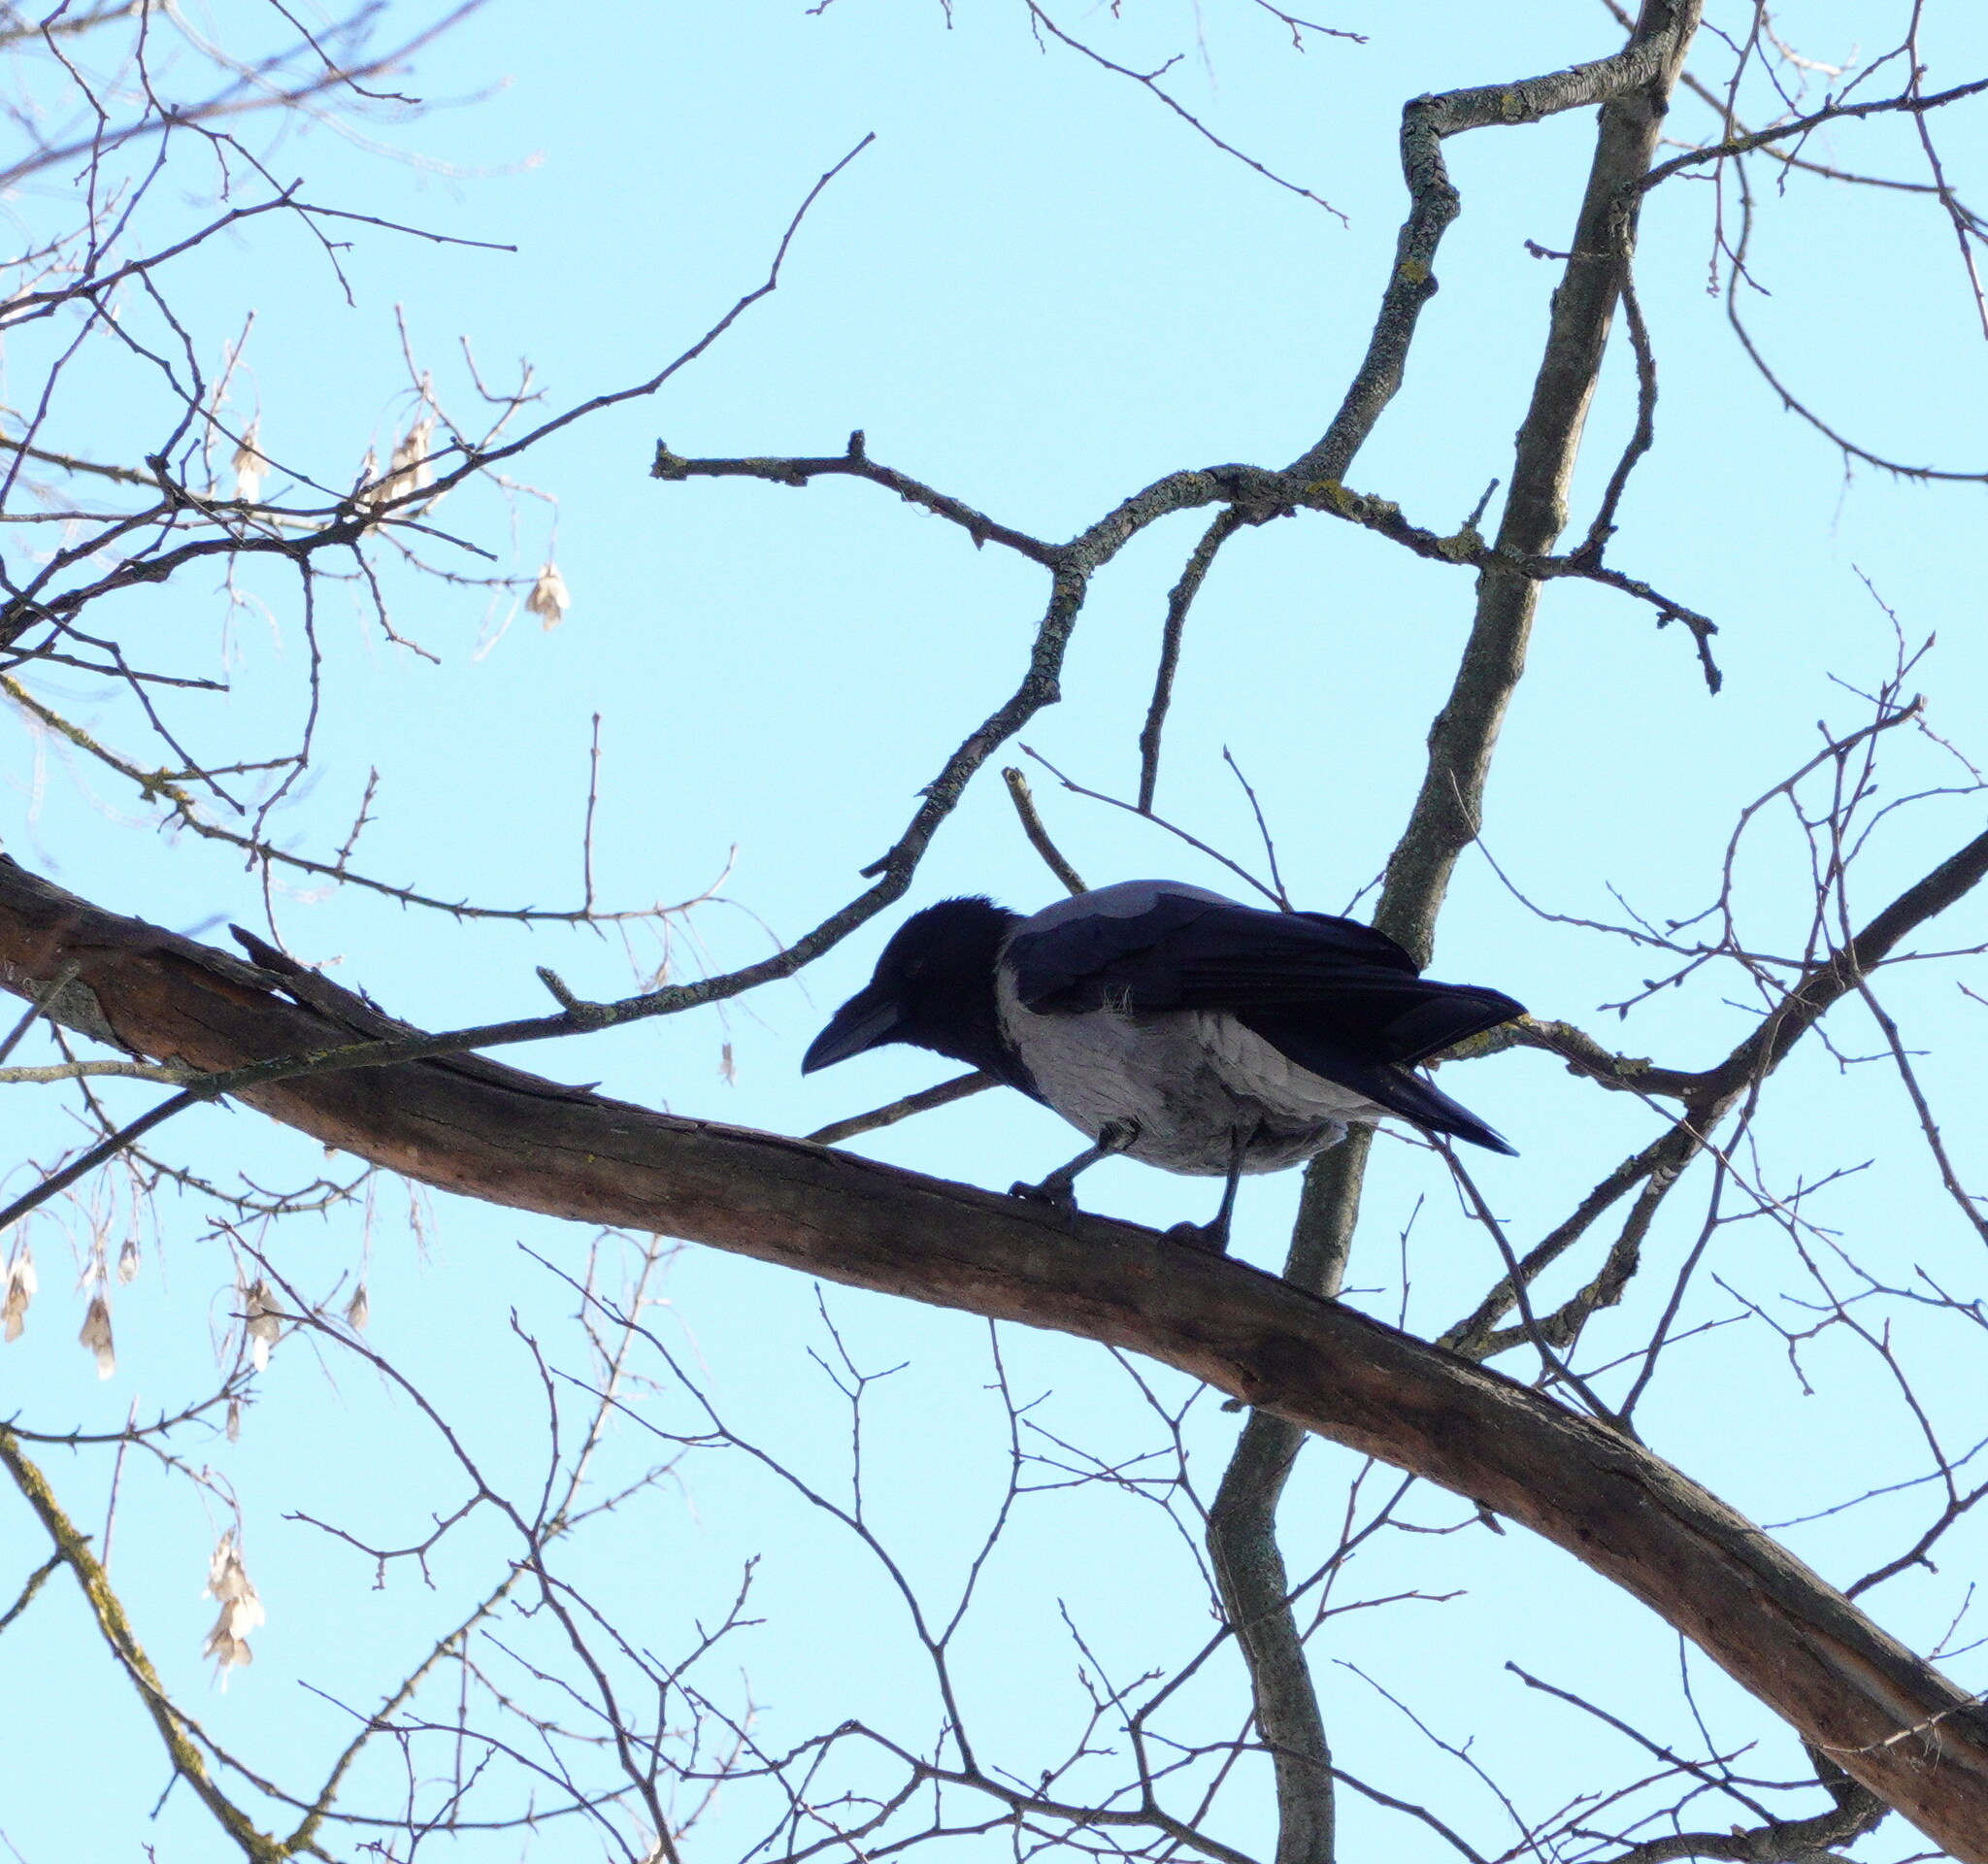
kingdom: Animalia
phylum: Chordata
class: Aves
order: Passeriformes
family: Corvidae
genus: Corvus
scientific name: Corvus cornix
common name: Hooded crow
